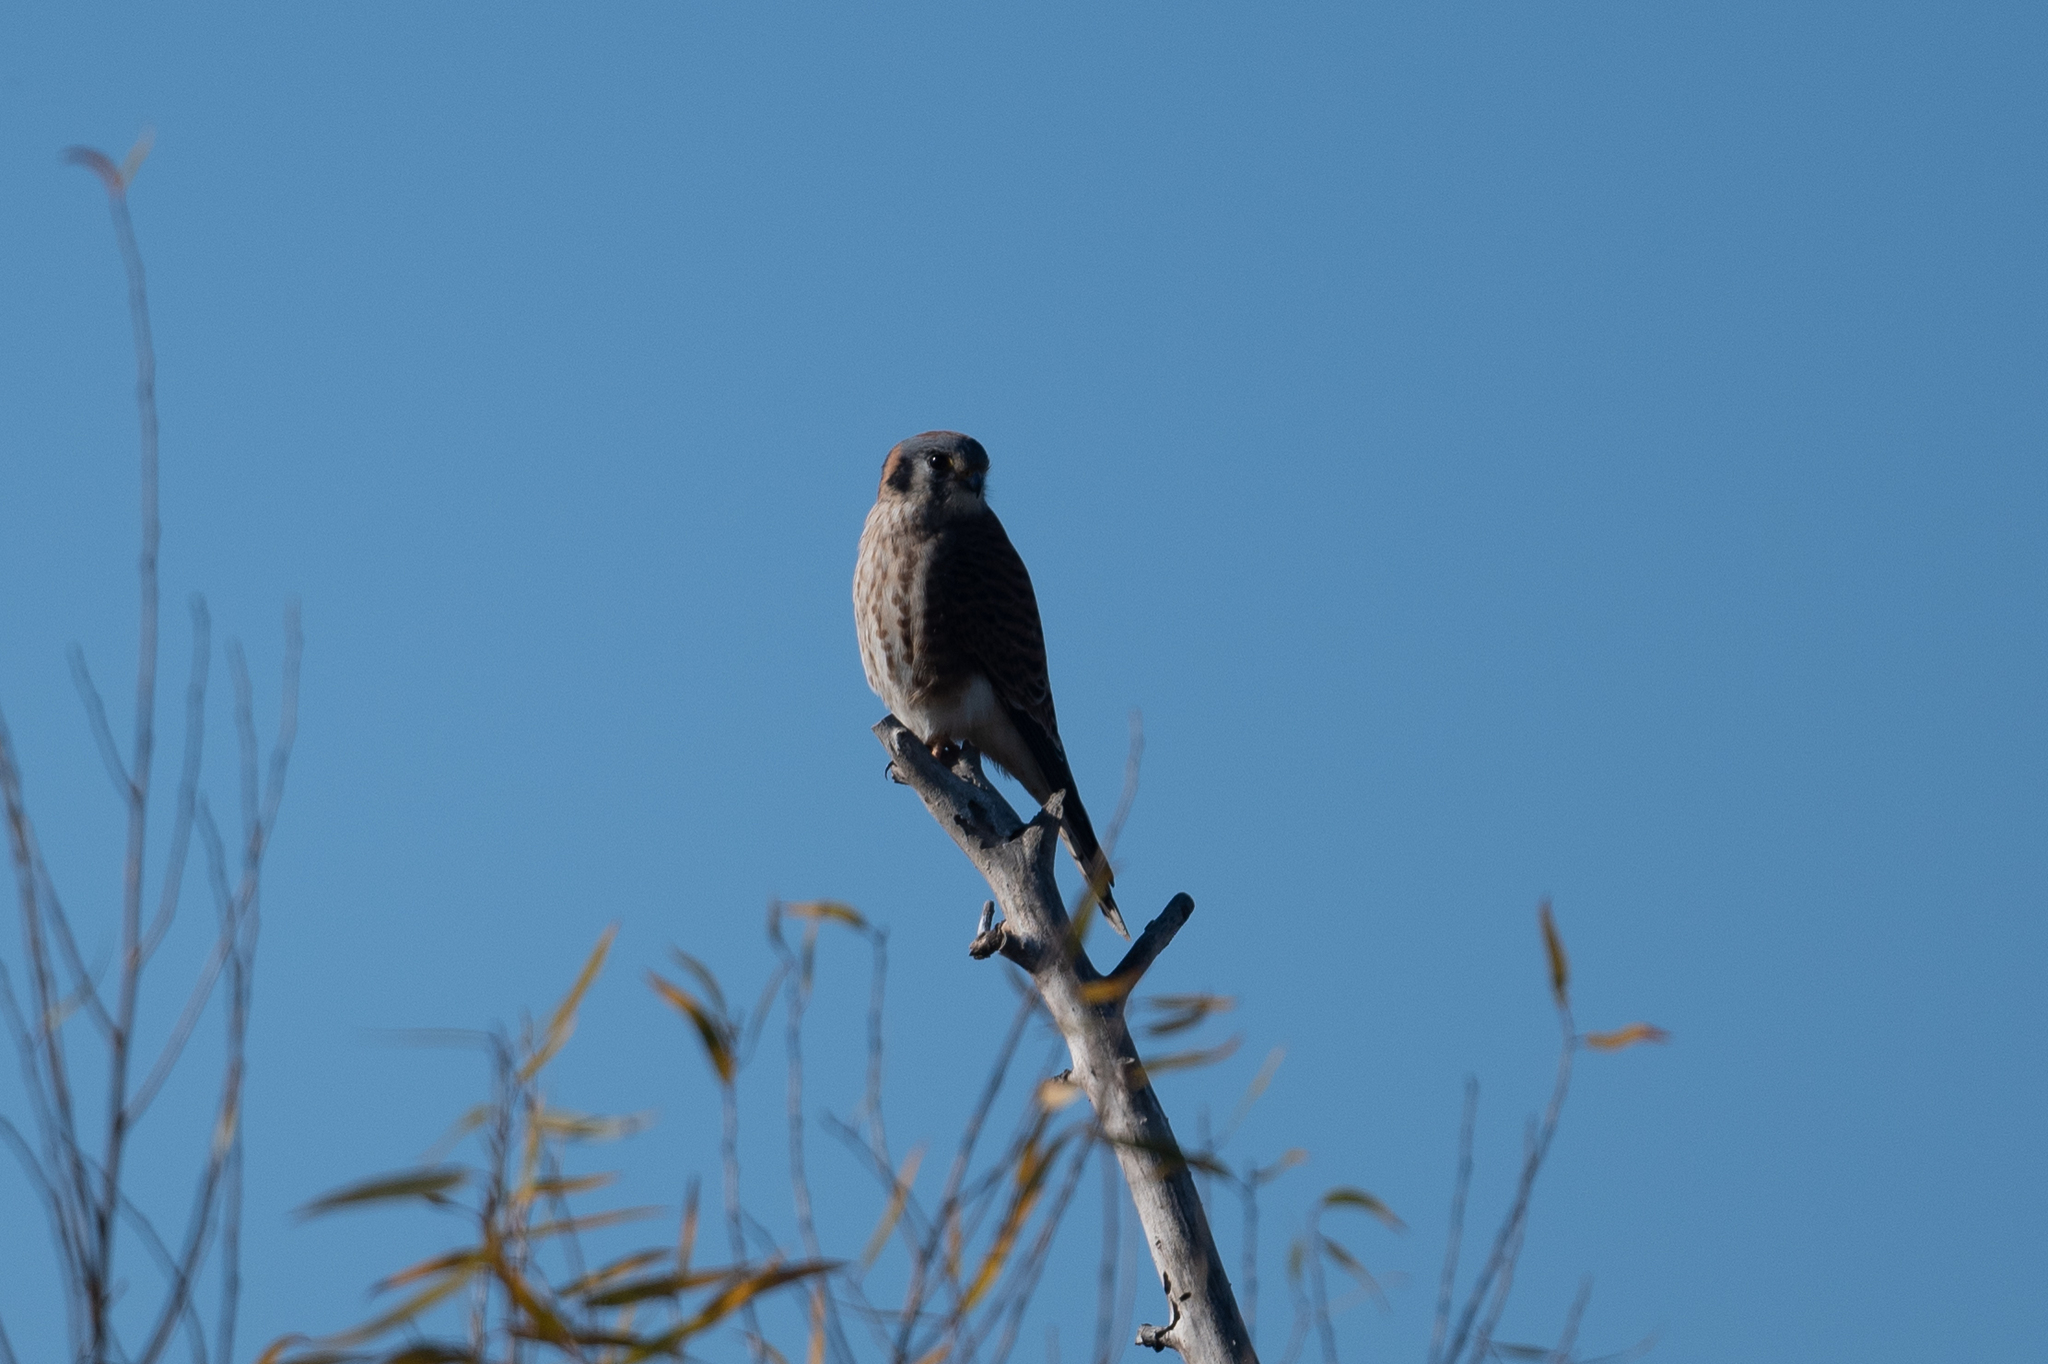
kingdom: Animalia
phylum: Chordata
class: Aves
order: Falconiformes
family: Falconidae
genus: Falco
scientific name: Falco sparverius
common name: American kestrel
